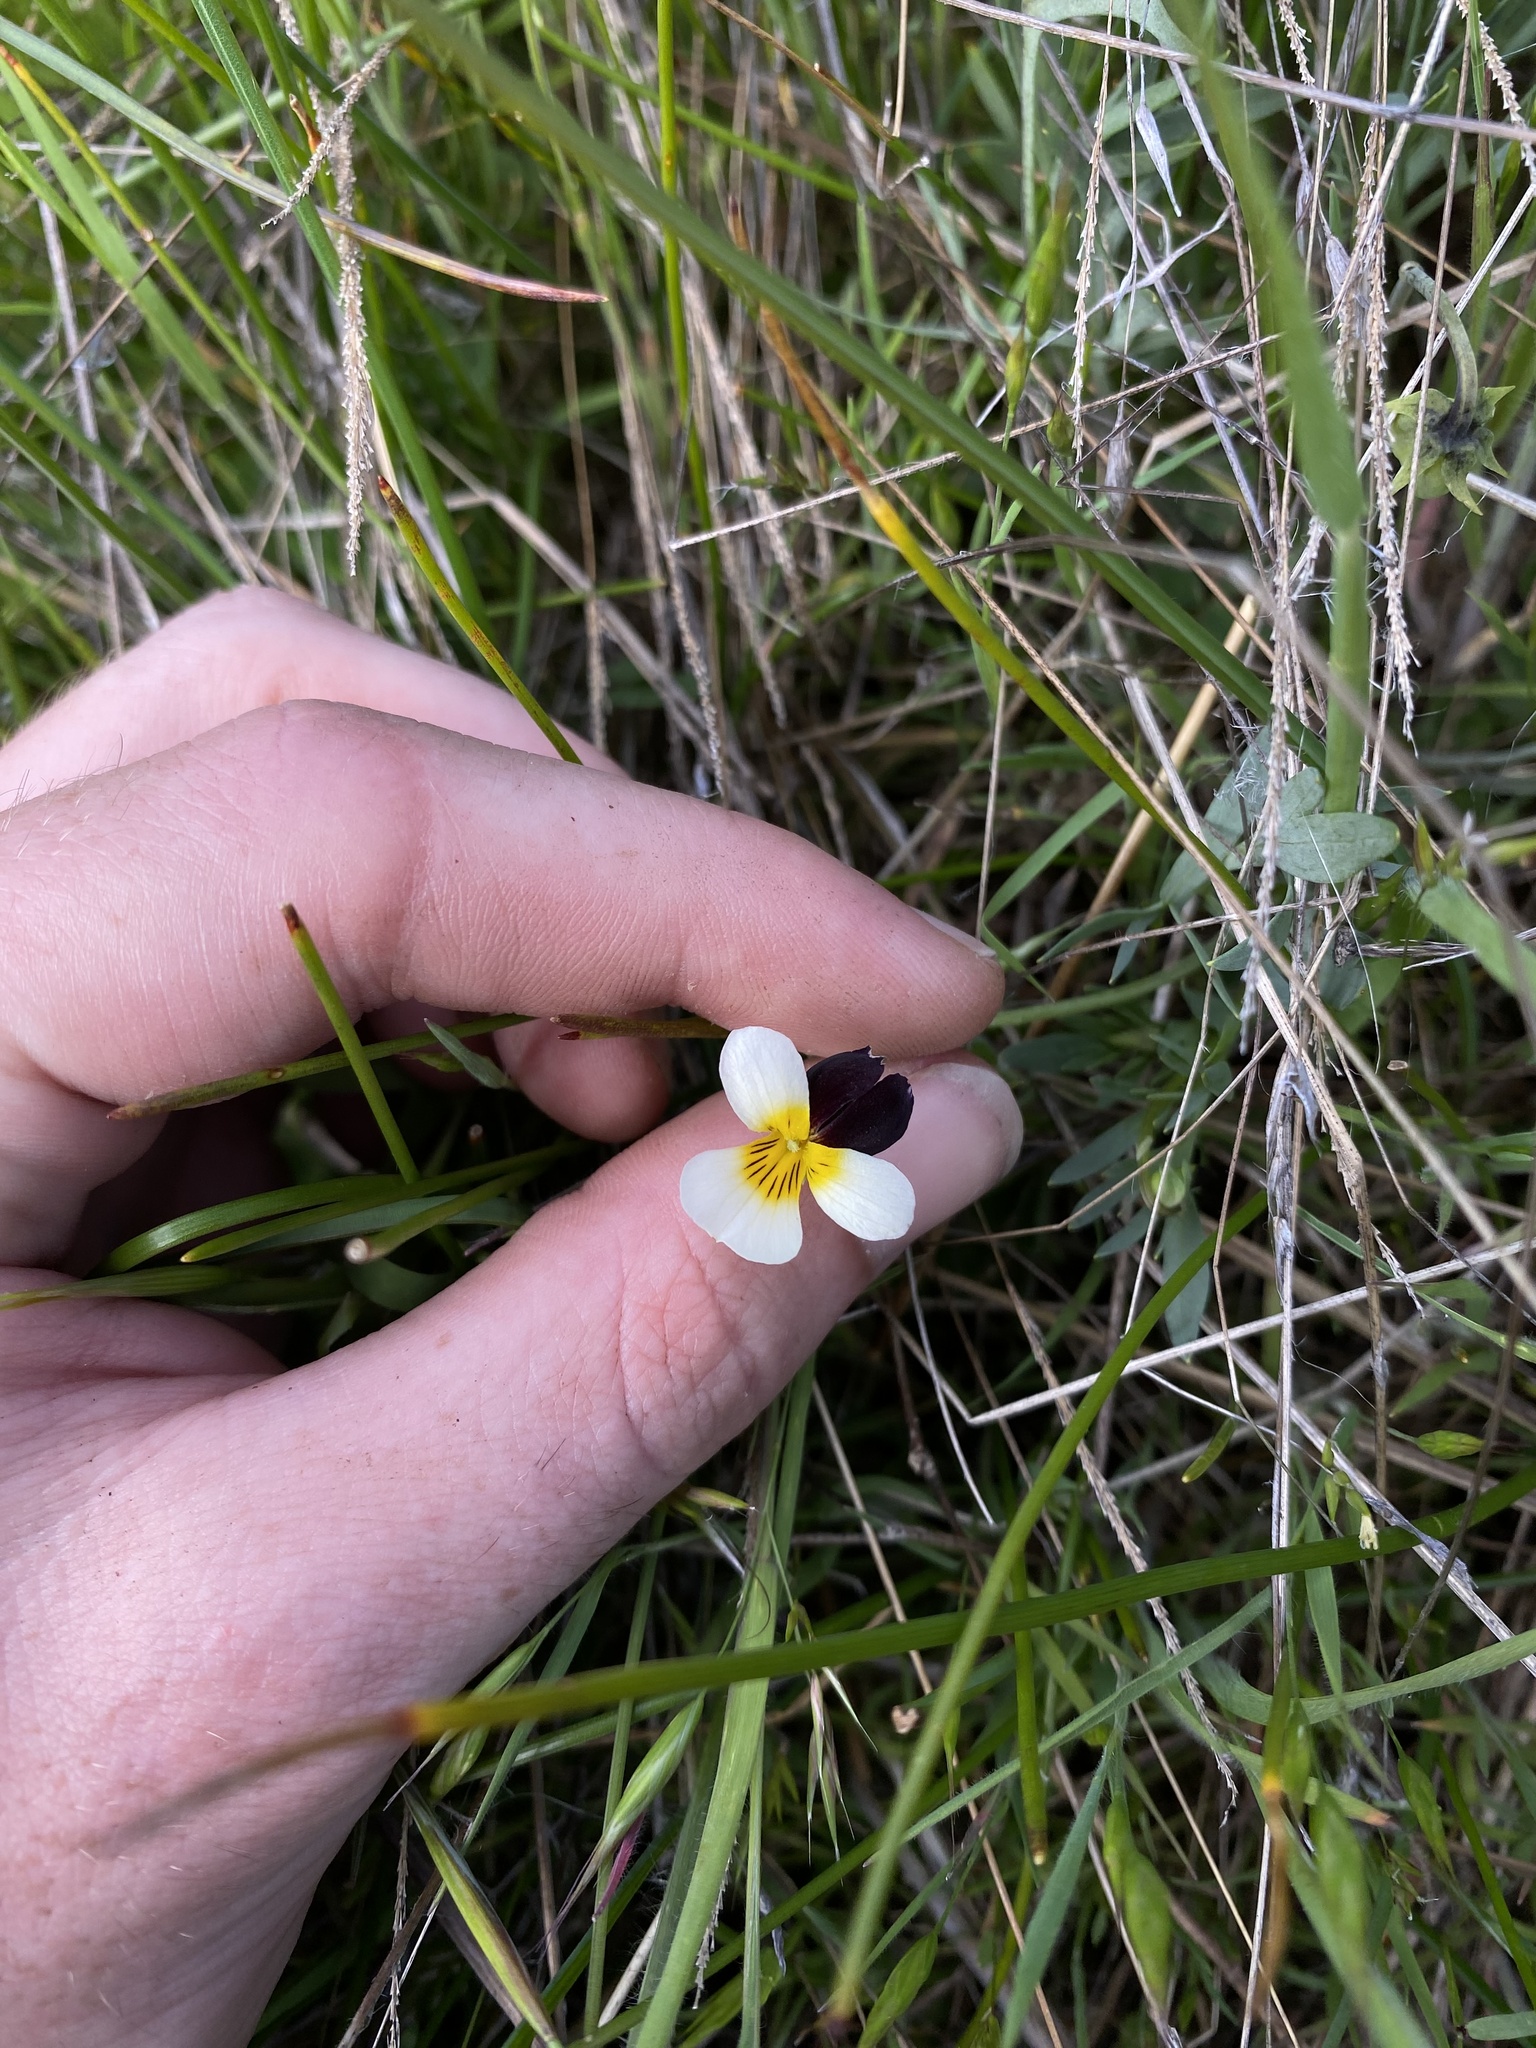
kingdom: Plantae
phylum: Tracheophyta
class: Magnoliopsida
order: Malpighiales
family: Violaceae
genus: Viola
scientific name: Viola hallii
